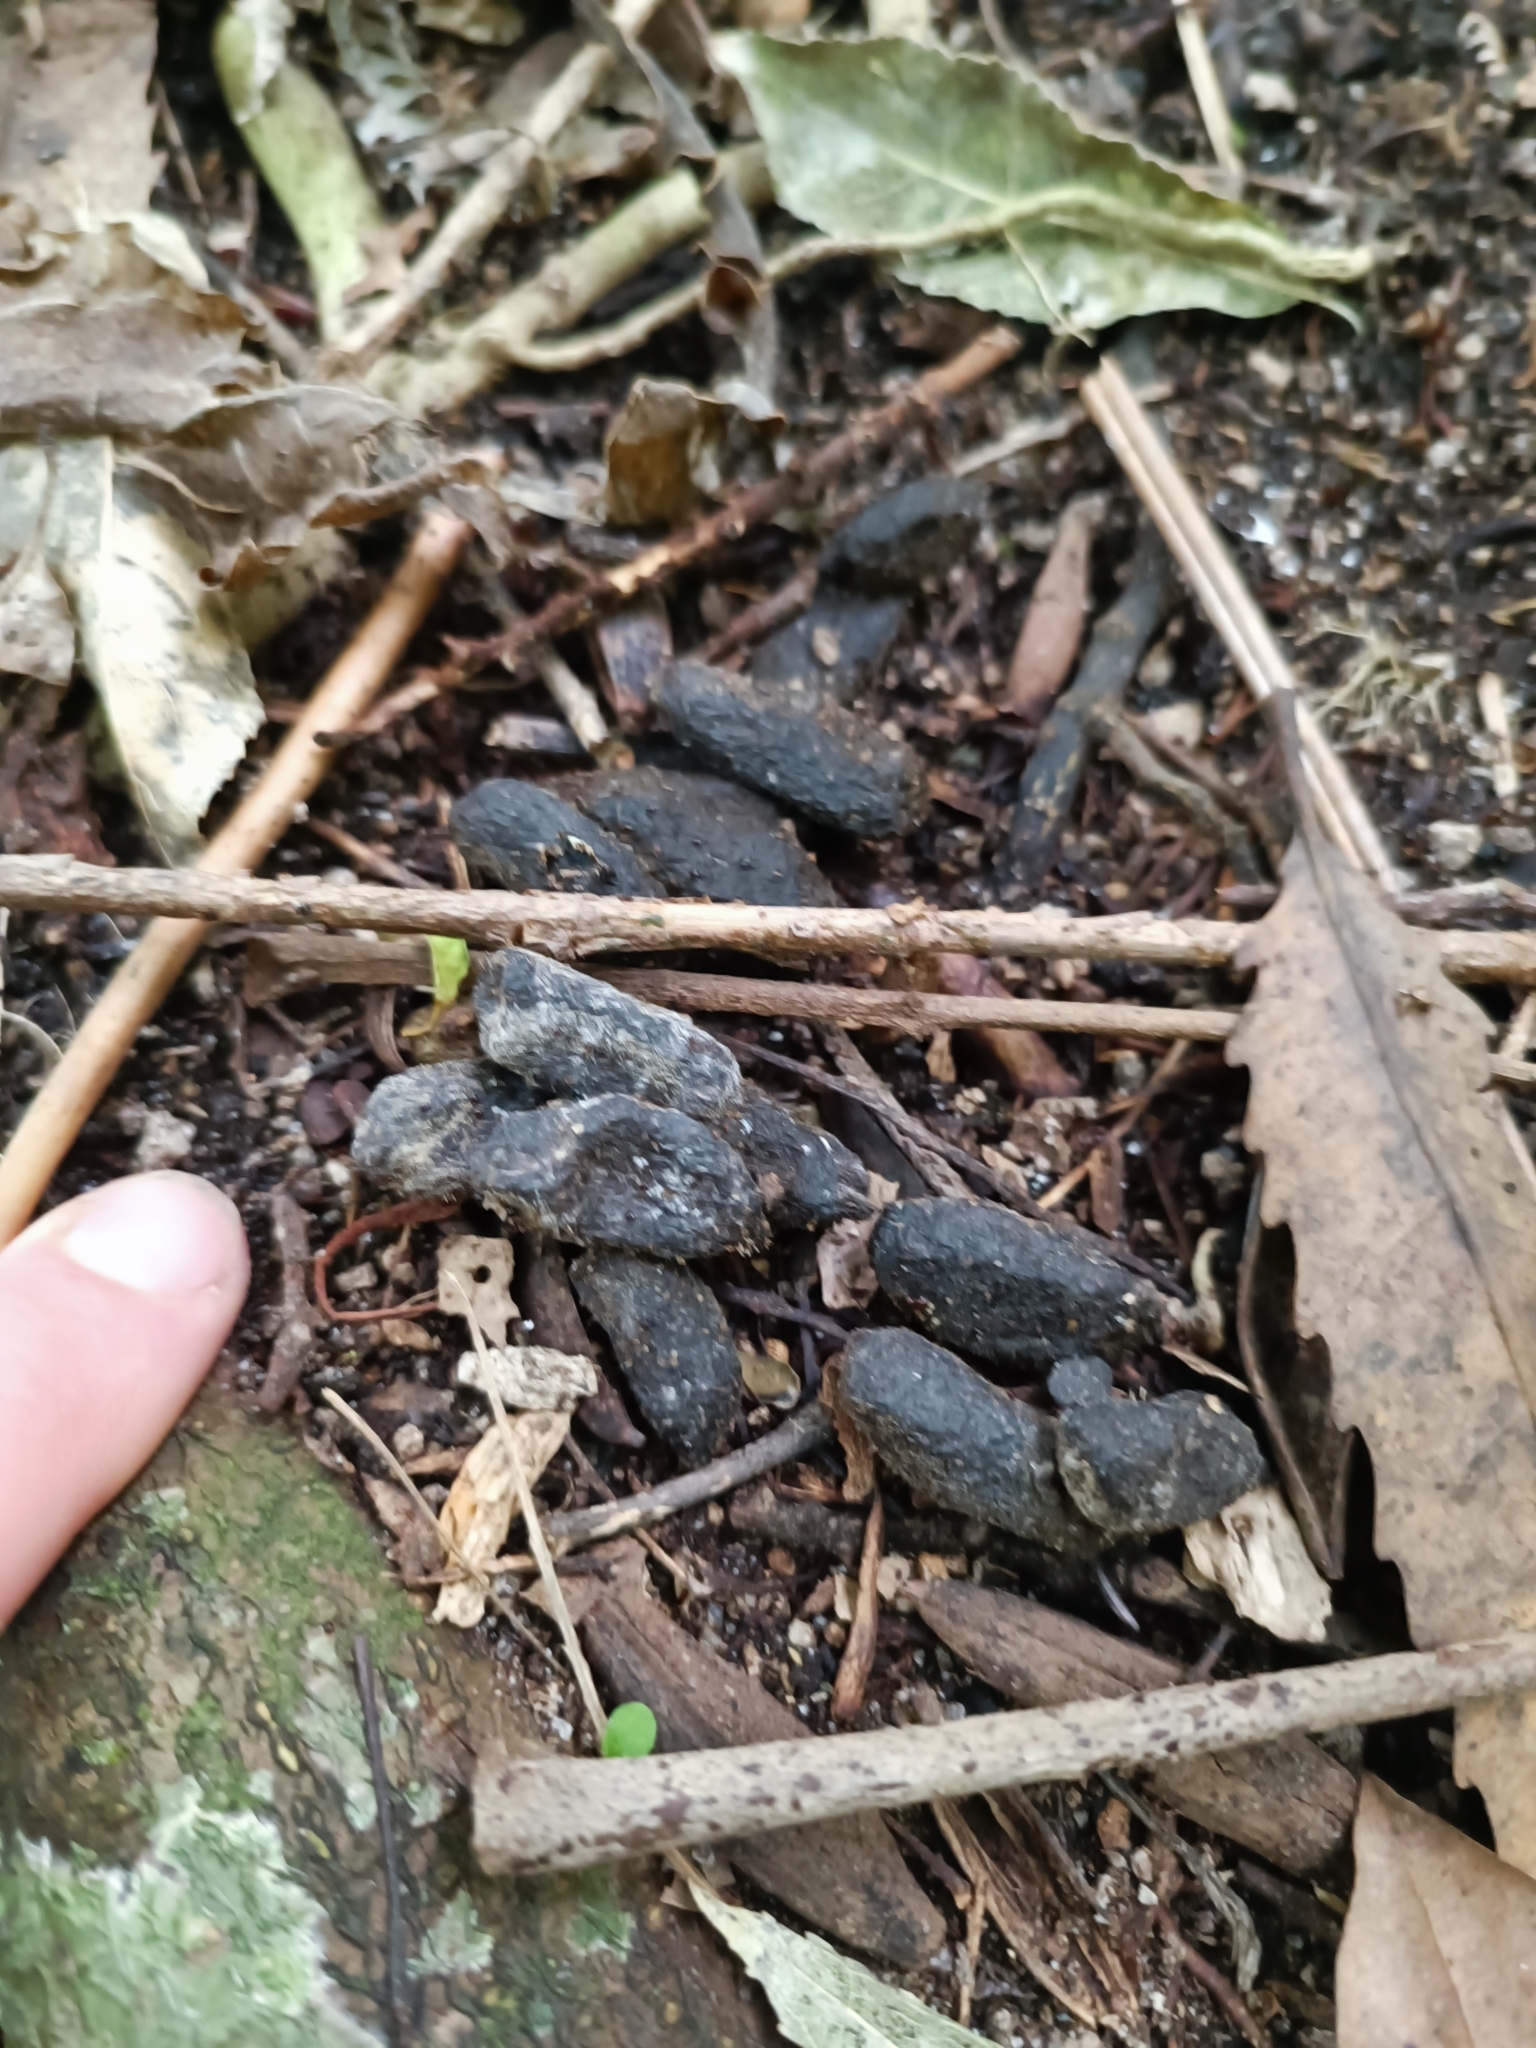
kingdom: Animalia
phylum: Chordata
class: Mammalia
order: Diprotodontia
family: Phalangeridae
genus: Trichosurus
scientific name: Trichosurus vulpecula
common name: Common brushtail
